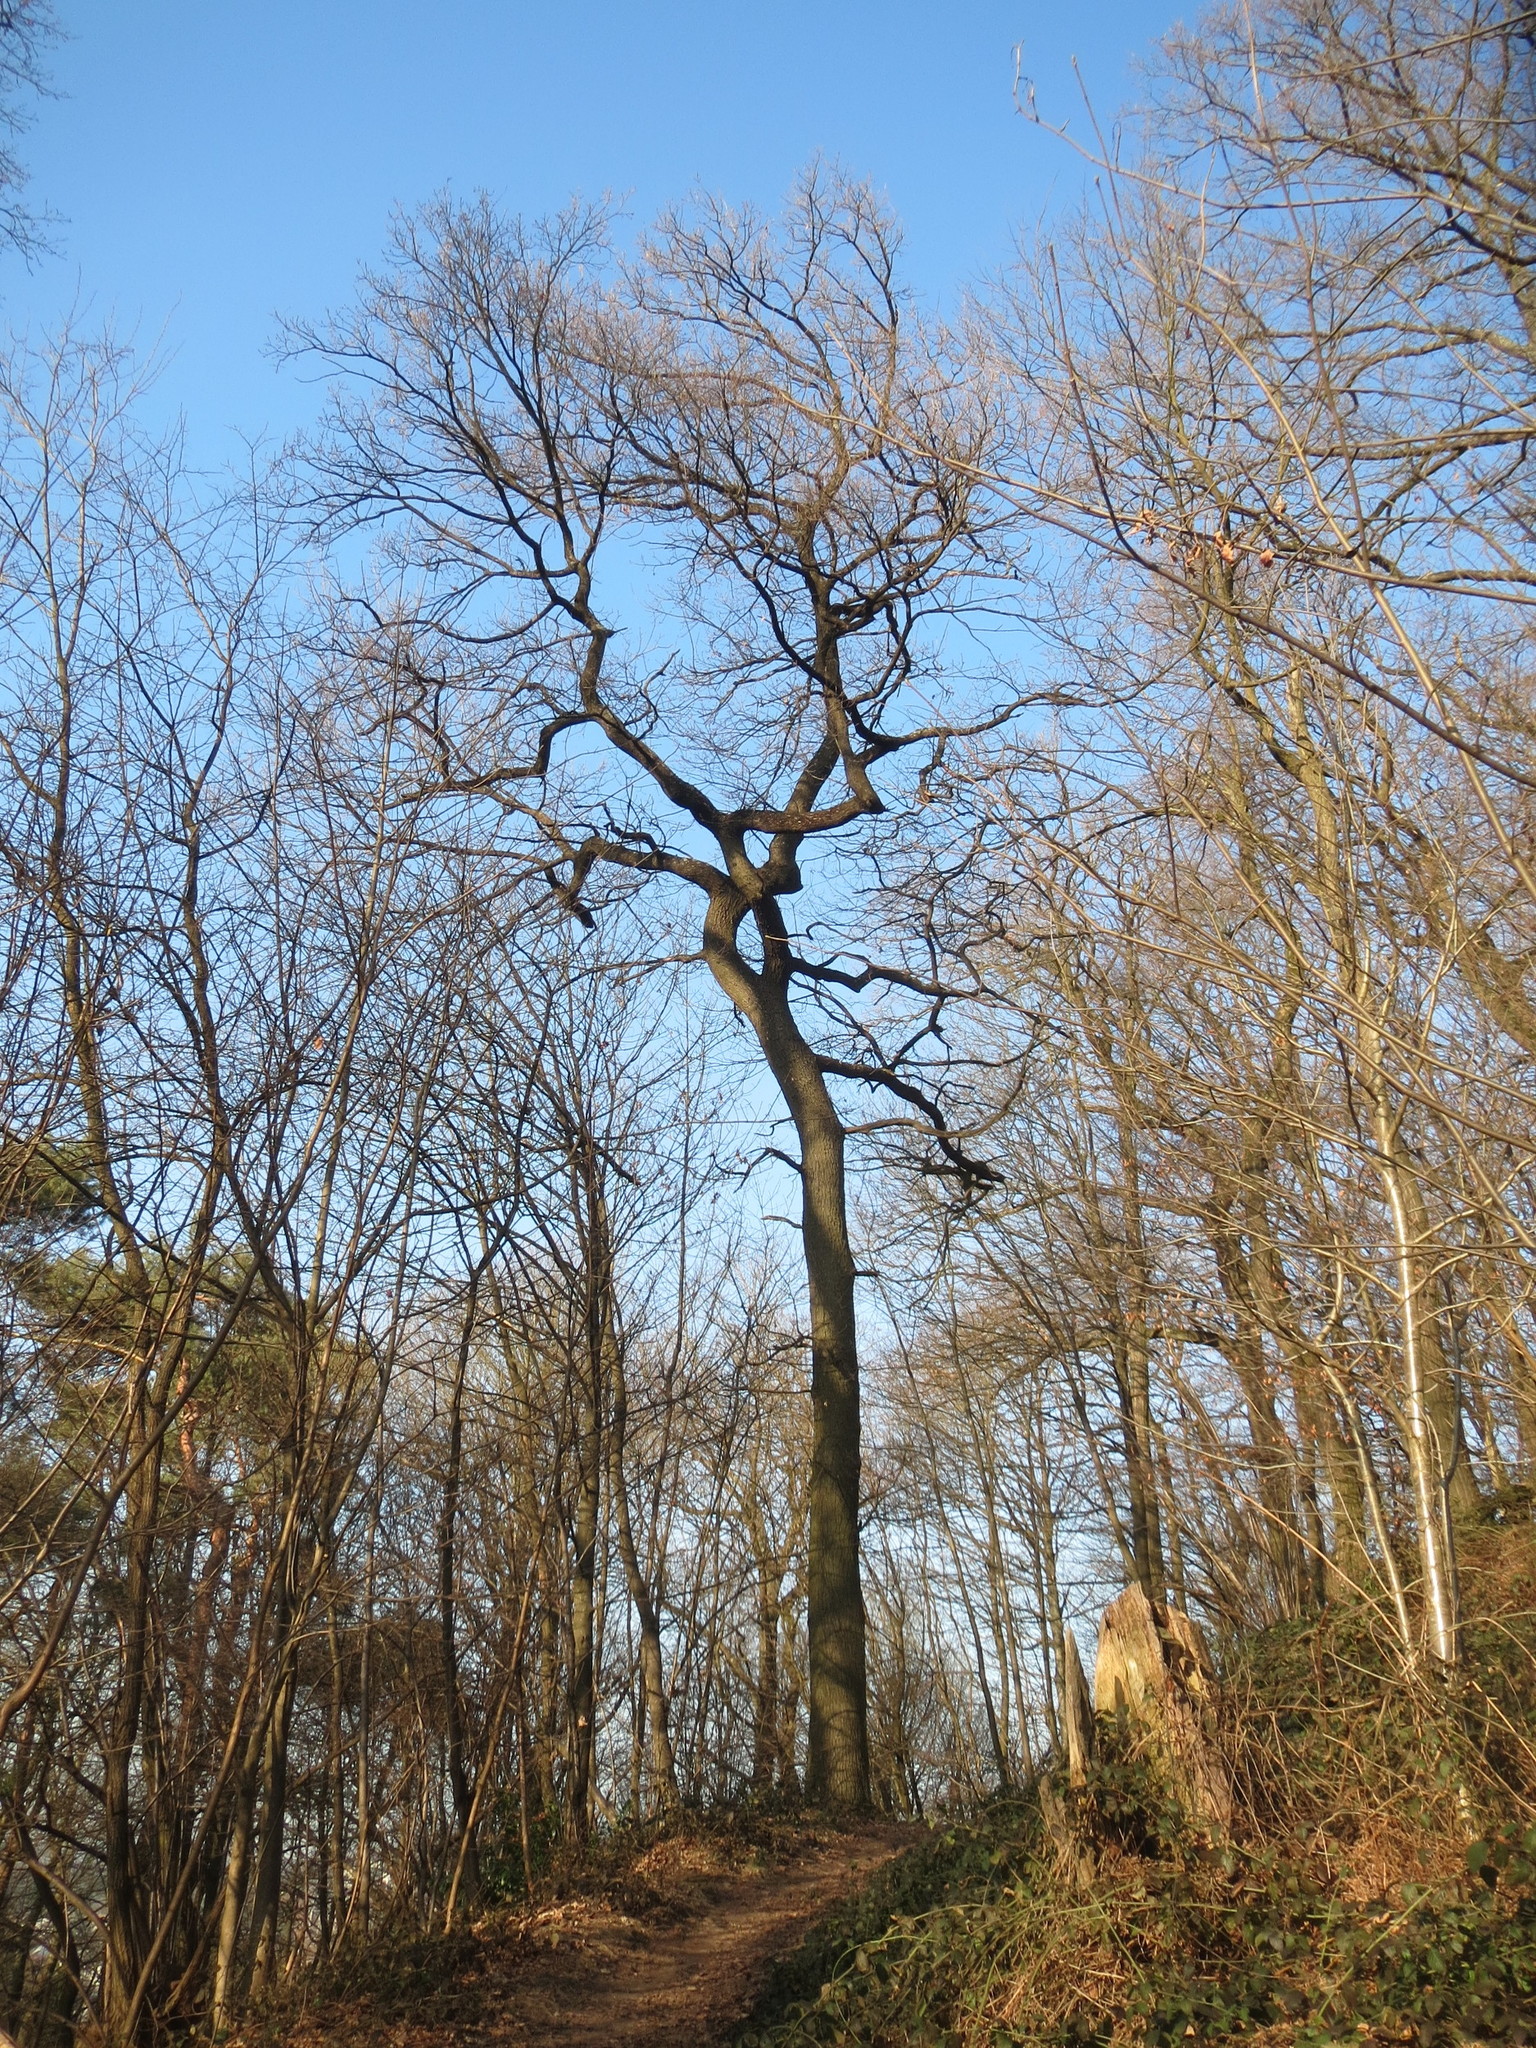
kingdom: Plantae
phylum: Tracheophyta
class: Magnoliopsida
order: Fagales
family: Fagaceae
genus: Quercus
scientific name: Quercus robur
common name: Pedunculate oak
